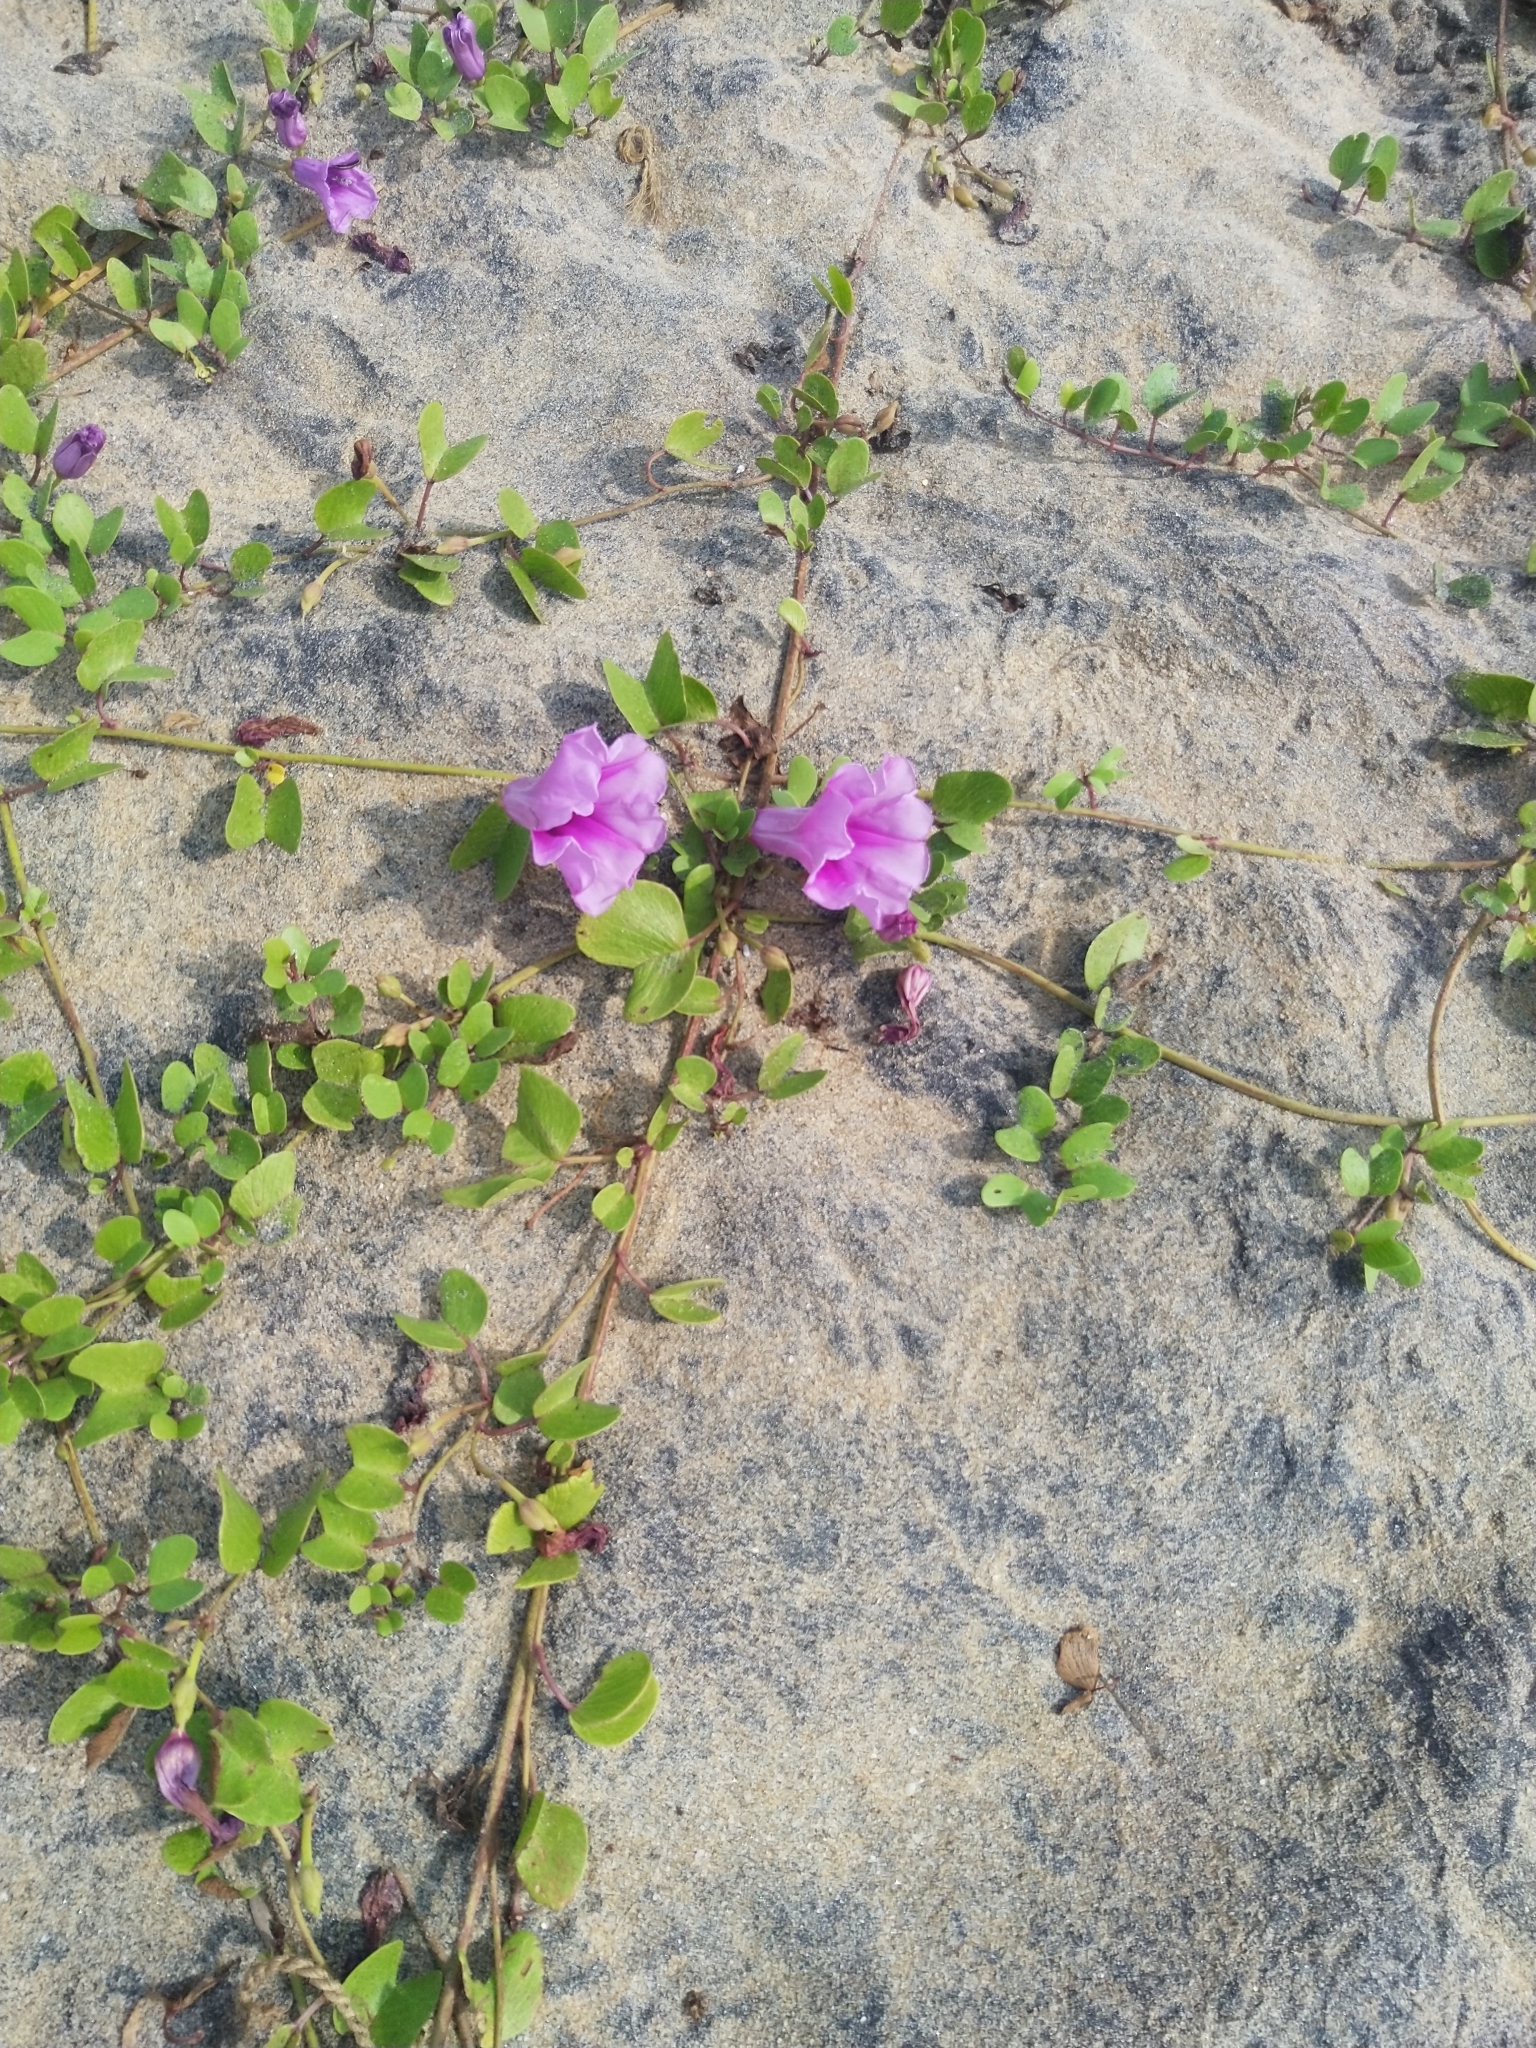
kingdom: Plantae
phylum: Tracheophyta
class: Magnoliopsida
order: Solanales
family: Convolvulaceae
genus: Ipomoea
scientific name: Ipomoea pes-caprae
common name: Beach morning glory
